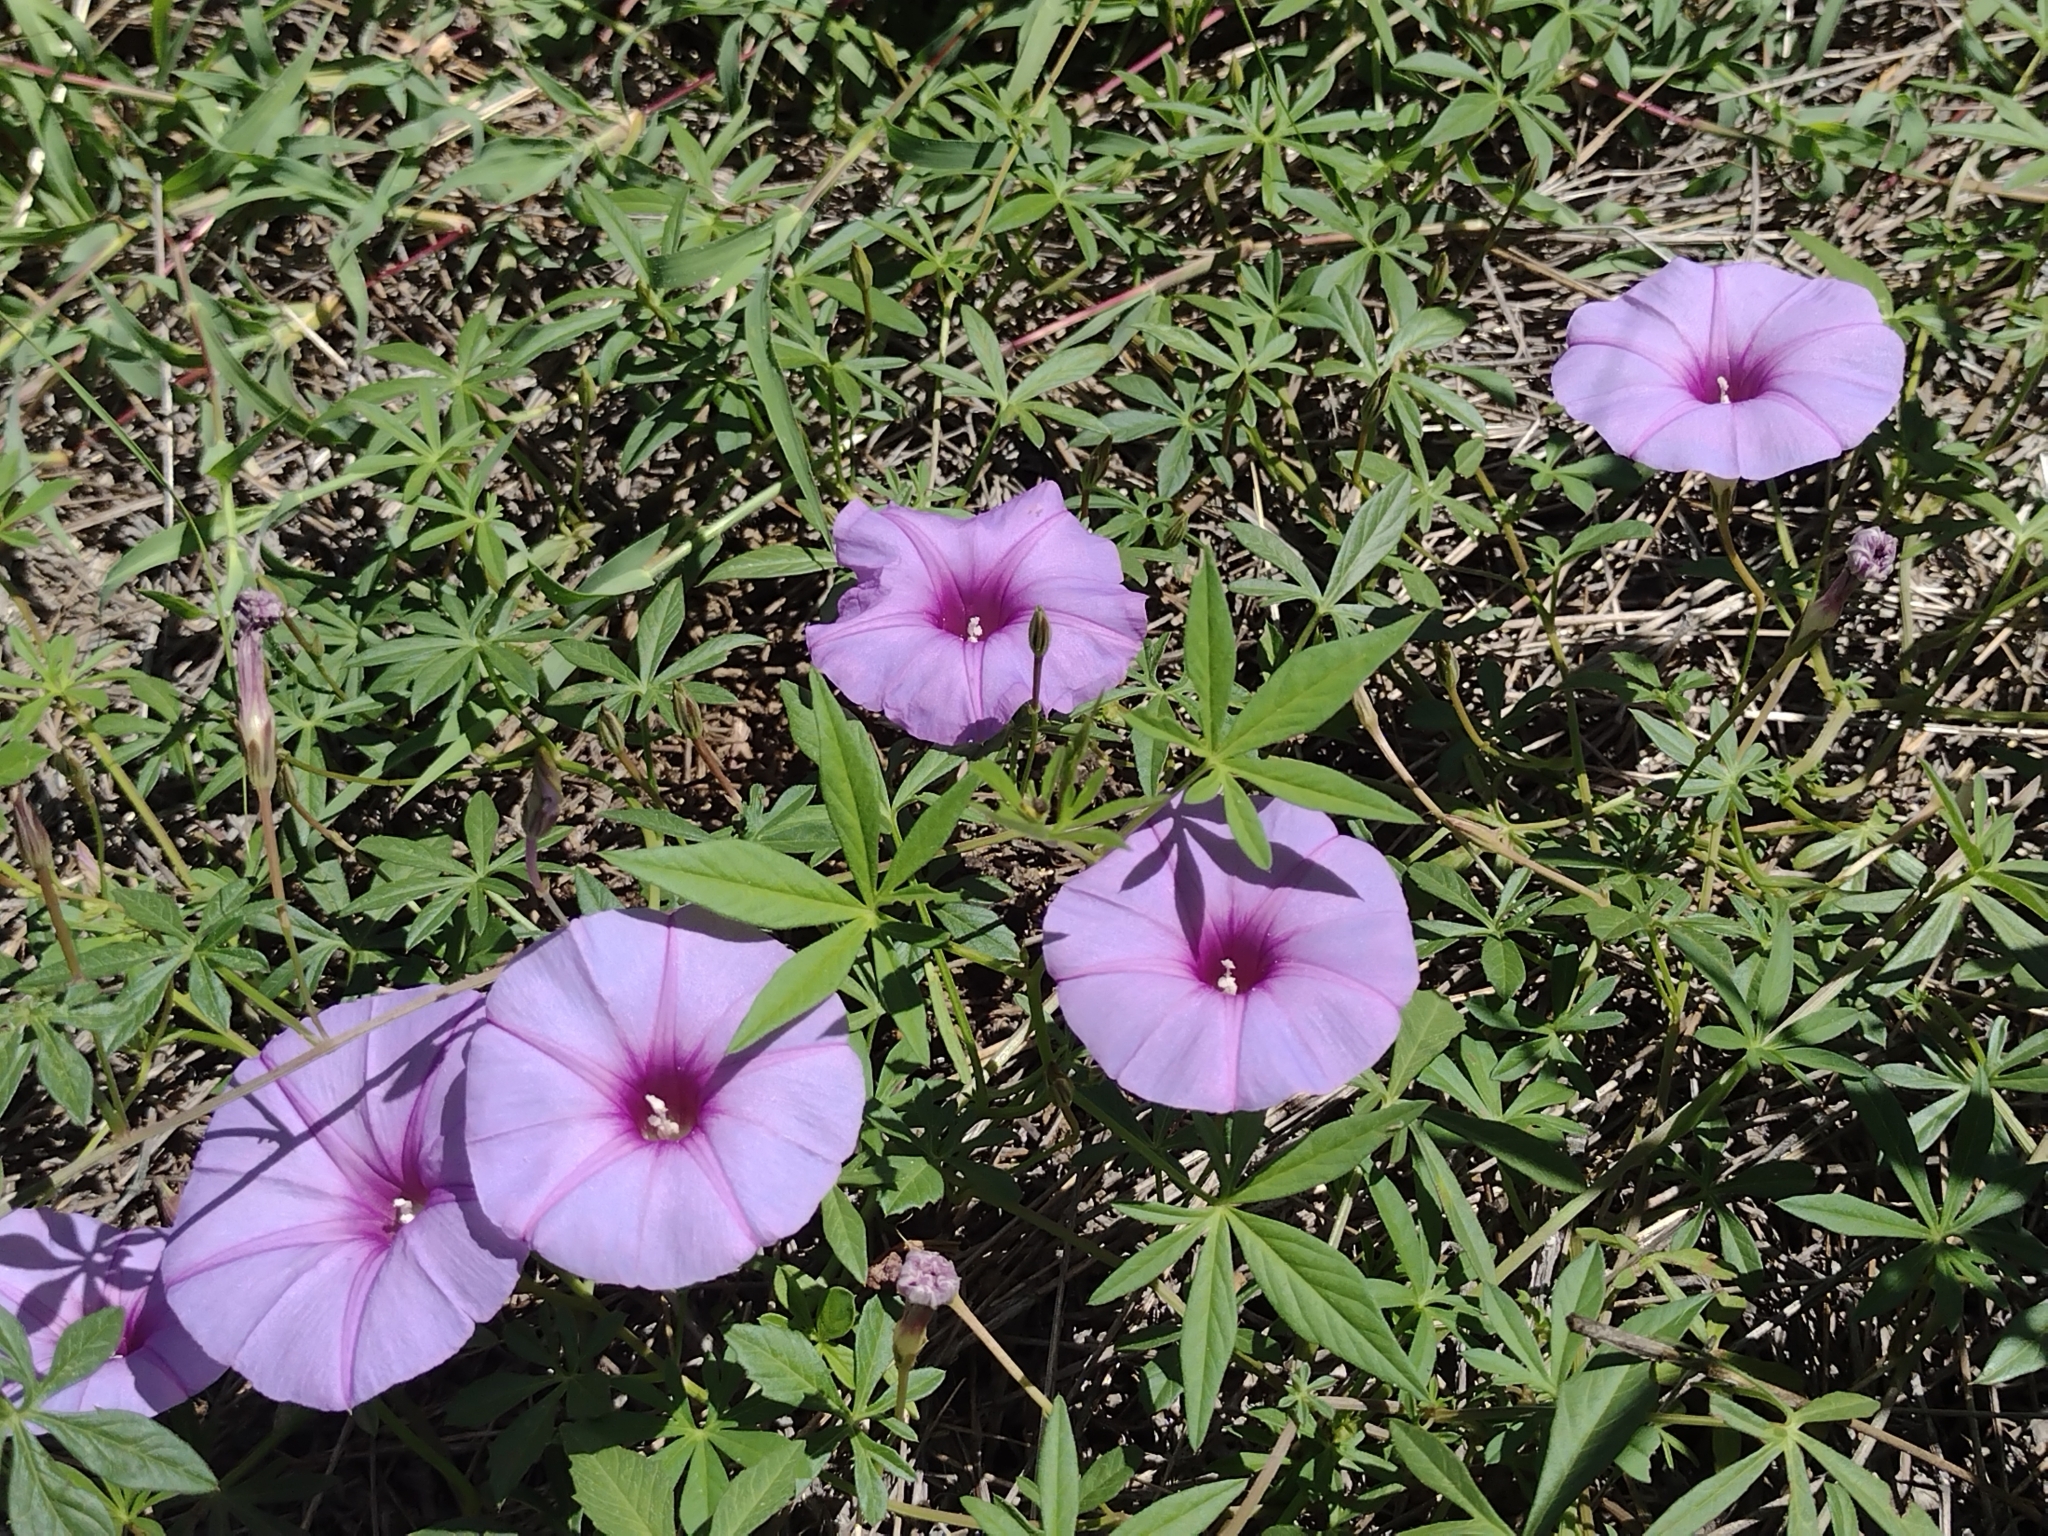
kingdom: Plantae
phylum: Tracheophyta
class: Magnoliopsida
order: Solanales
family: Convolvulaceae
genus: Ipomoea
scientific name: Ipomoea ternifolia
